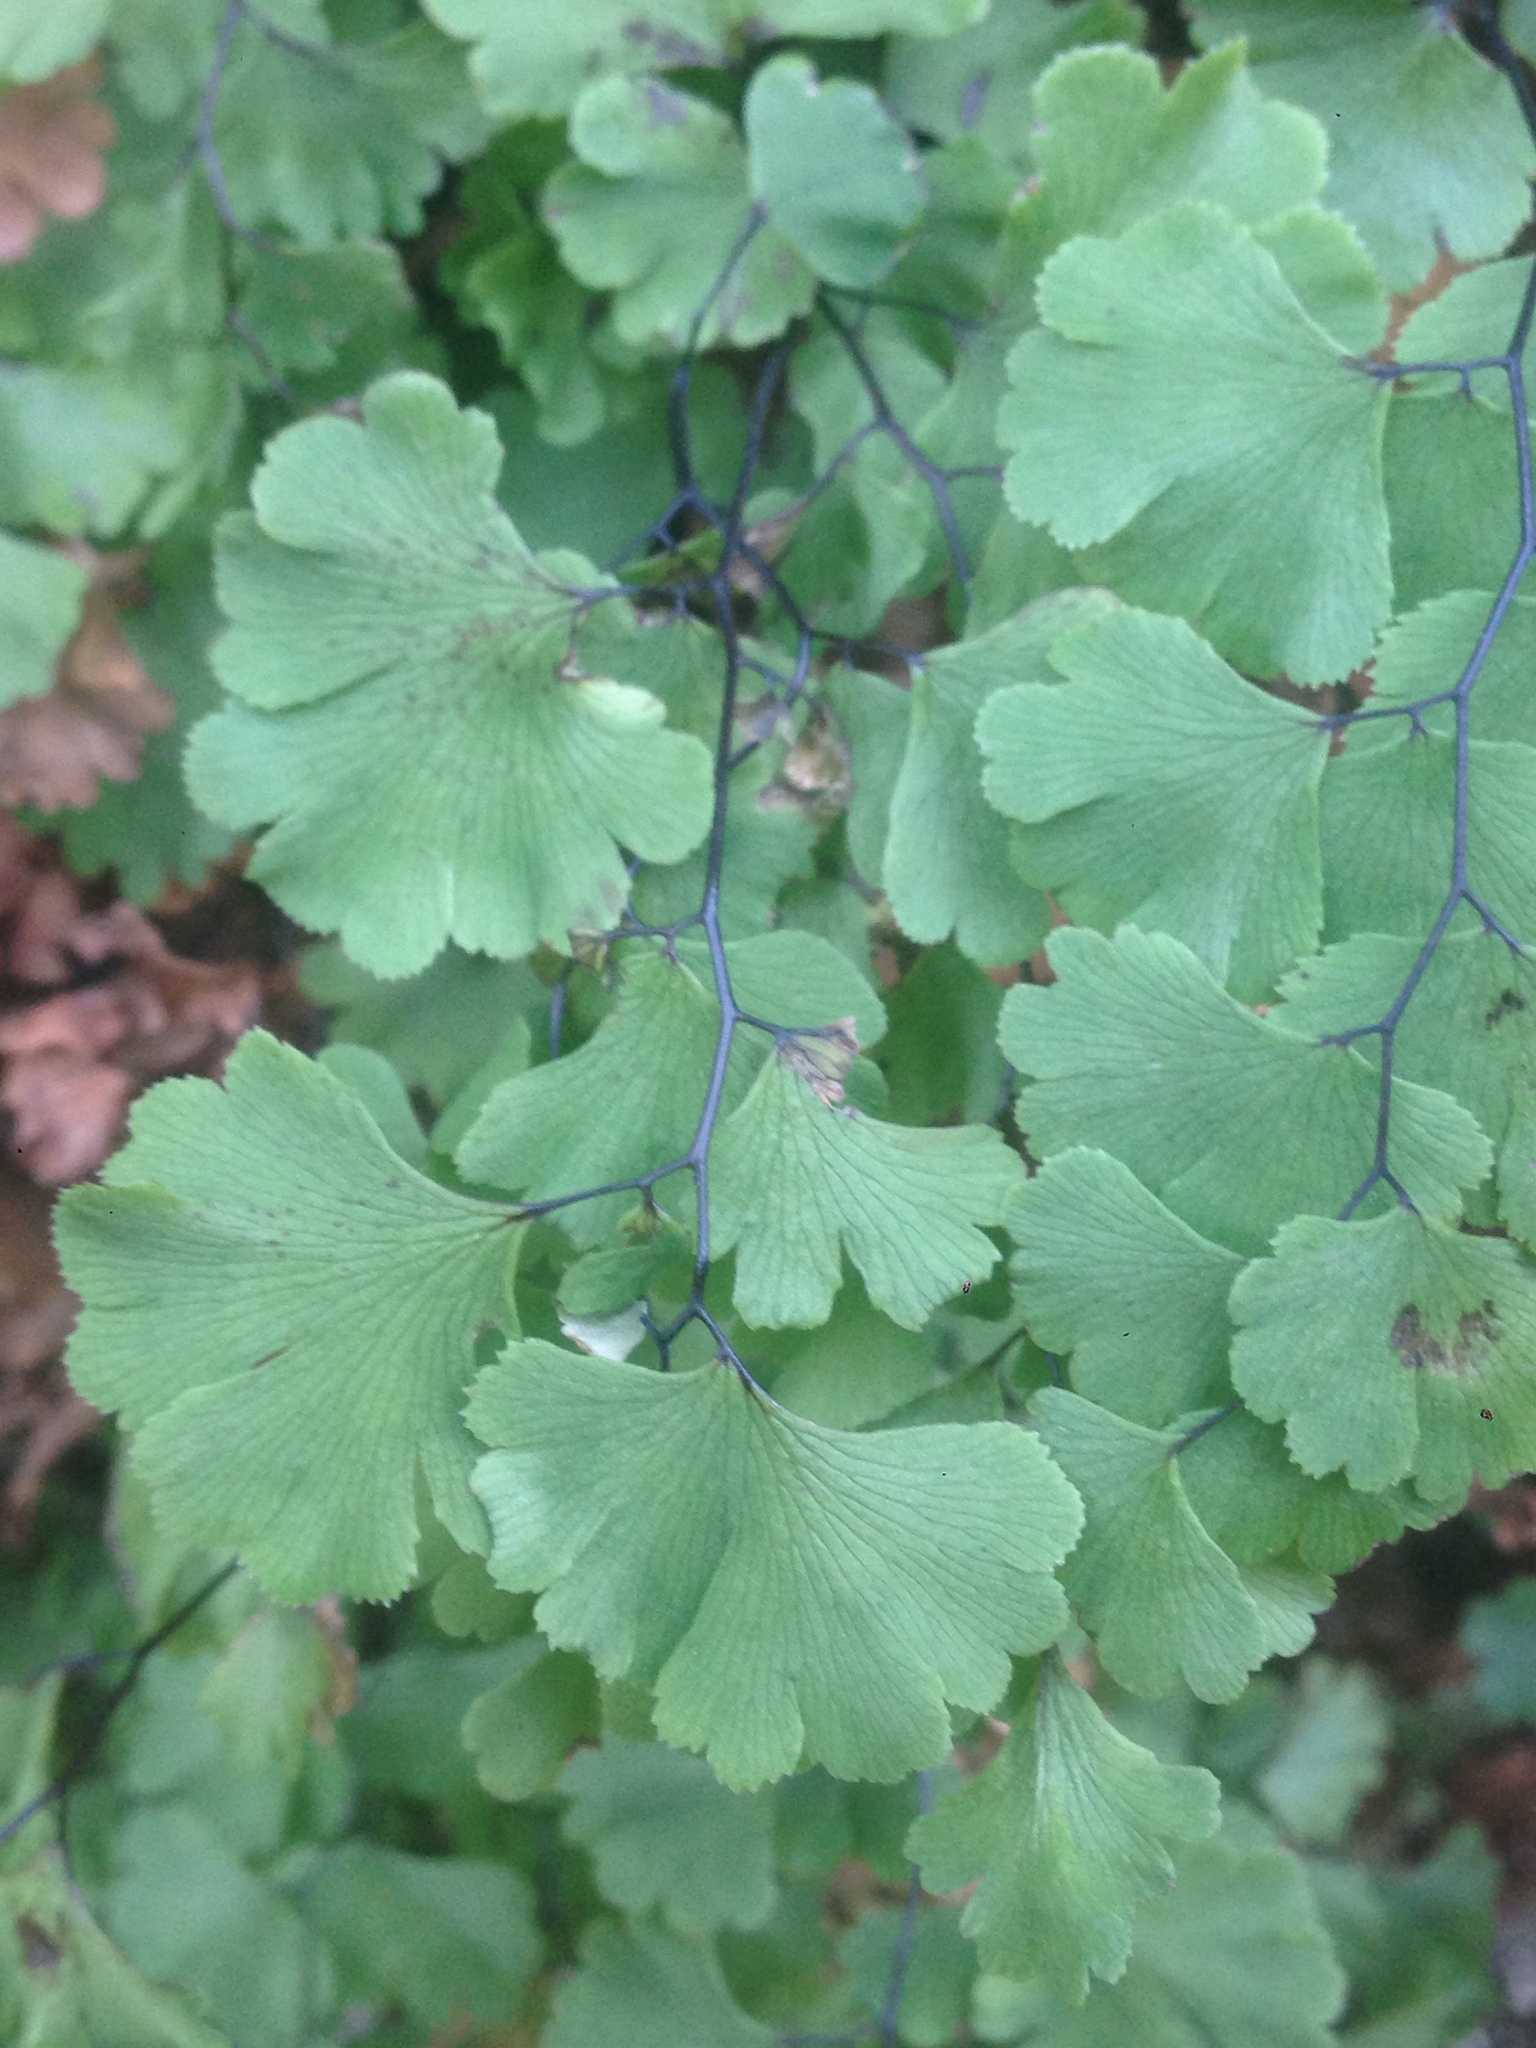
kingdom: Plantae
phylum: Tracheophyta
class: Polypodiopsida
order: Polypodiales
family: Pteridaceae
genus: Adiantum
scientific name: Adiantum capillus-veneris
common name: Maidenhair fern
